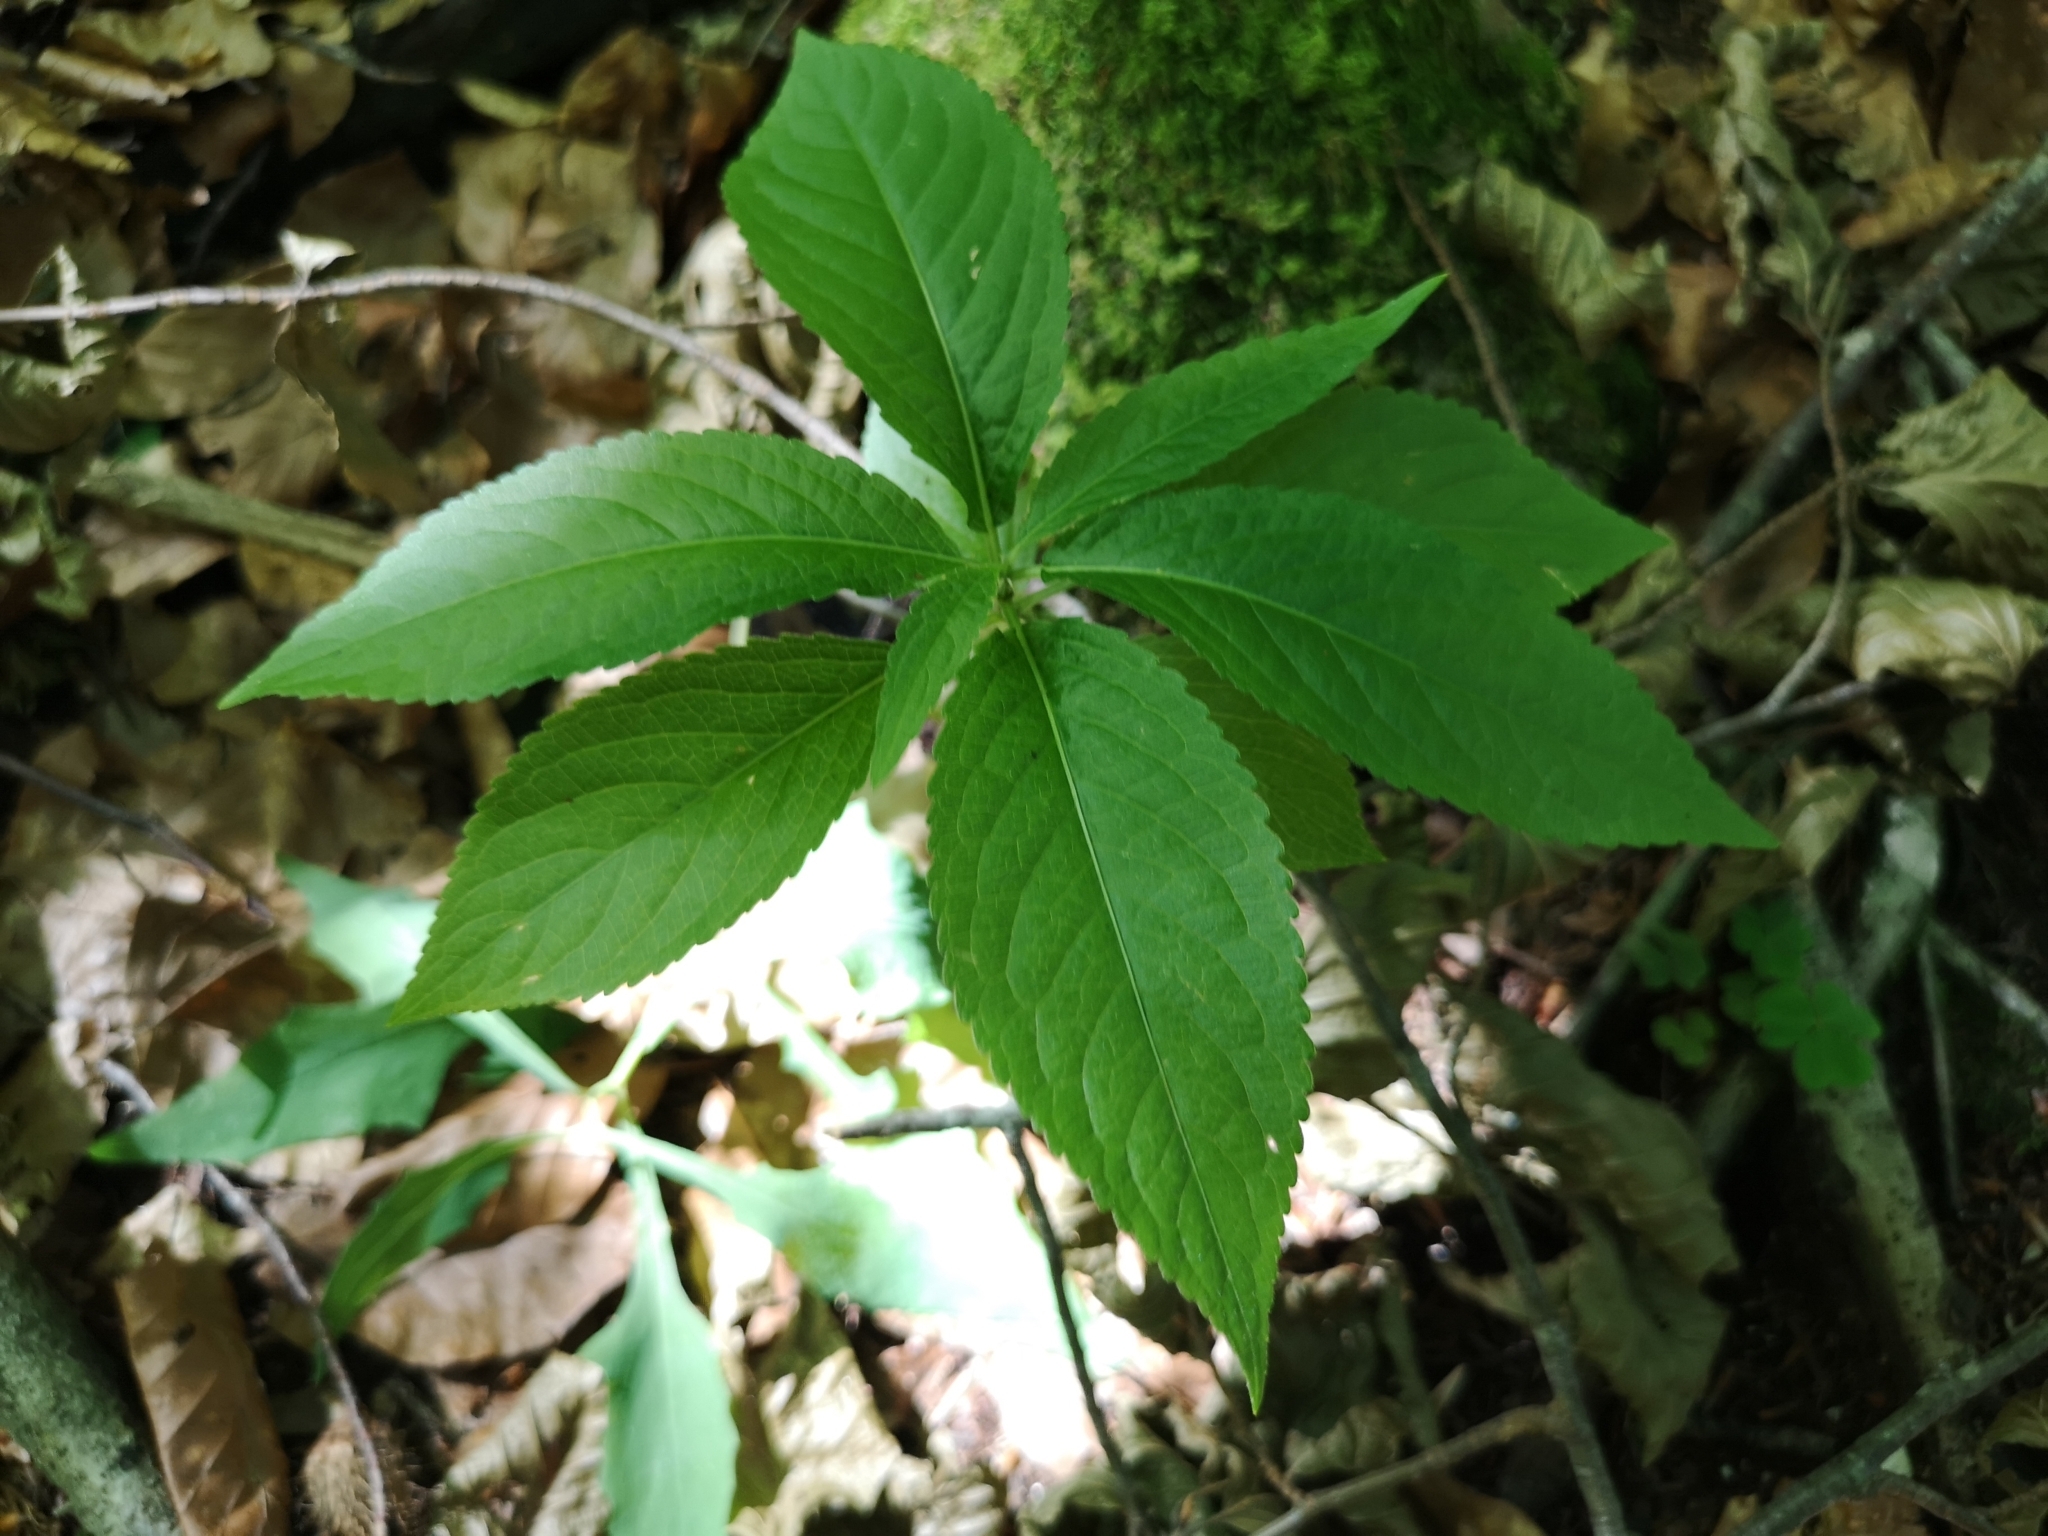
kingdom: Plantae
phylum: Tracheophyta
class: Magnoliopsida
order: Malpighiales
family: Euphorbiaceae
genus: Mercurialis
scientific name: Mercurialis perennis
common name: Dog mercury
